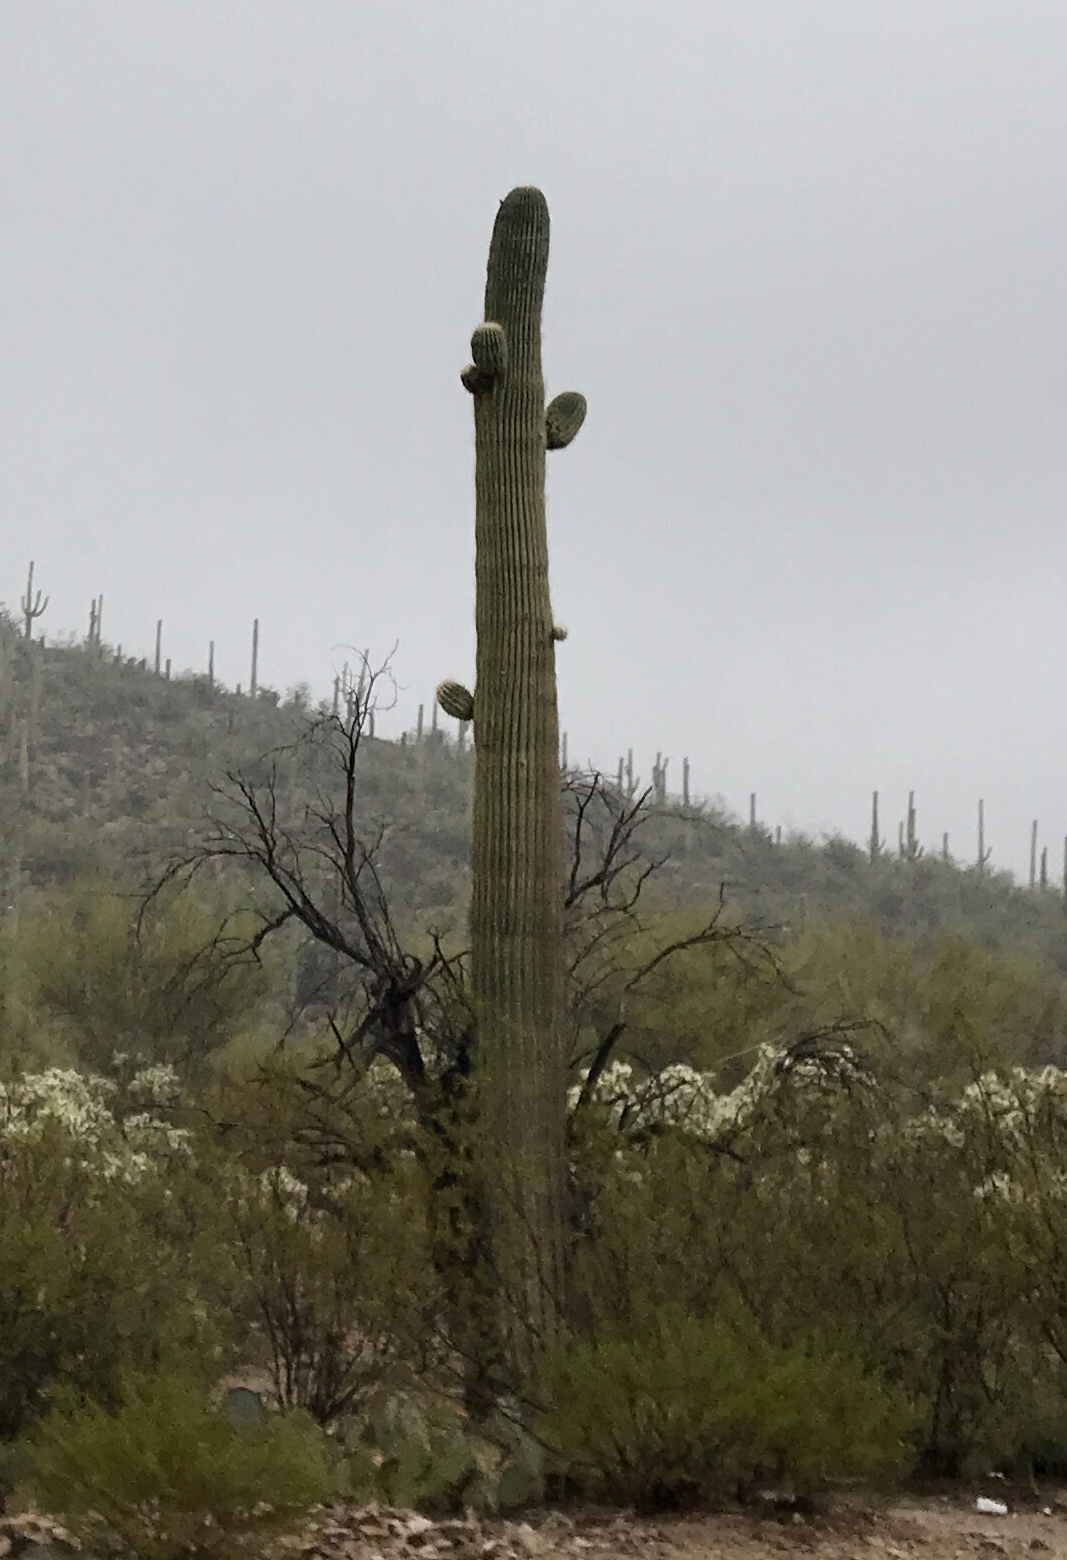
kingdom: Plantae
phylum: Tracheophyta
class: Magnoliopsida
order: Caryophyllales
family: Cactaceae
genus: Carnegiea
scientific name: Carnegiea gigantea
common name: Saguaro
